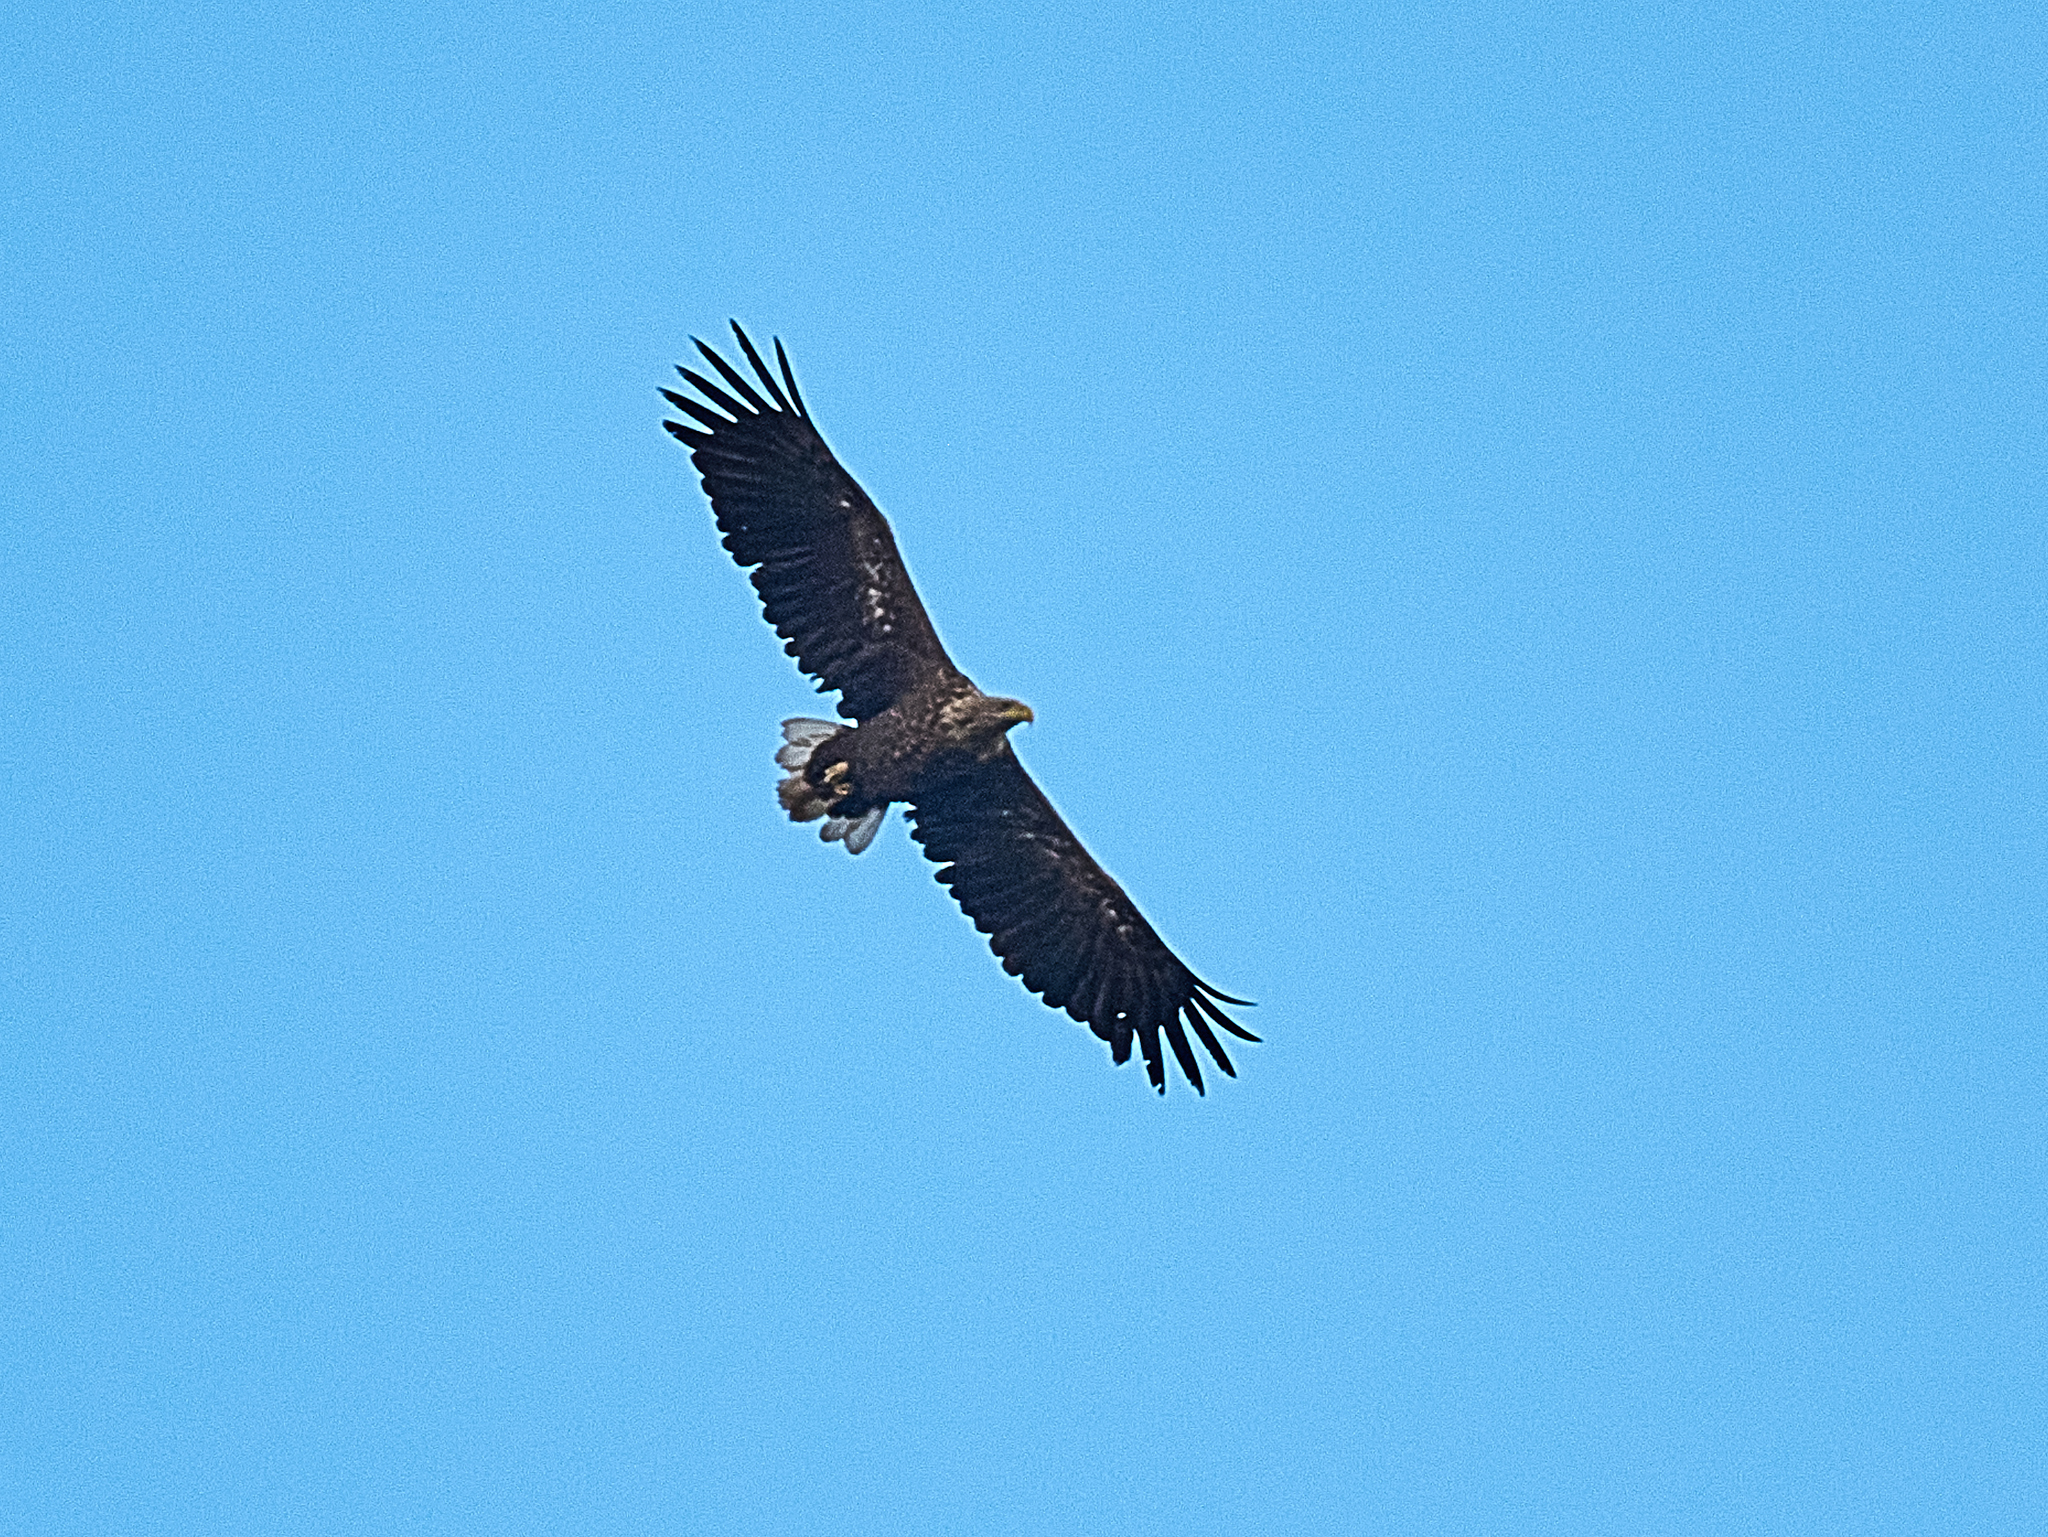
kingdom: Animalia
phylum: Chordata
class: Aves
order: Accipitriformes
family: Accipitridae
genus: Haliaeetus
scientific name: Haliaeetus albicilla
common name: White-tailed eagle
